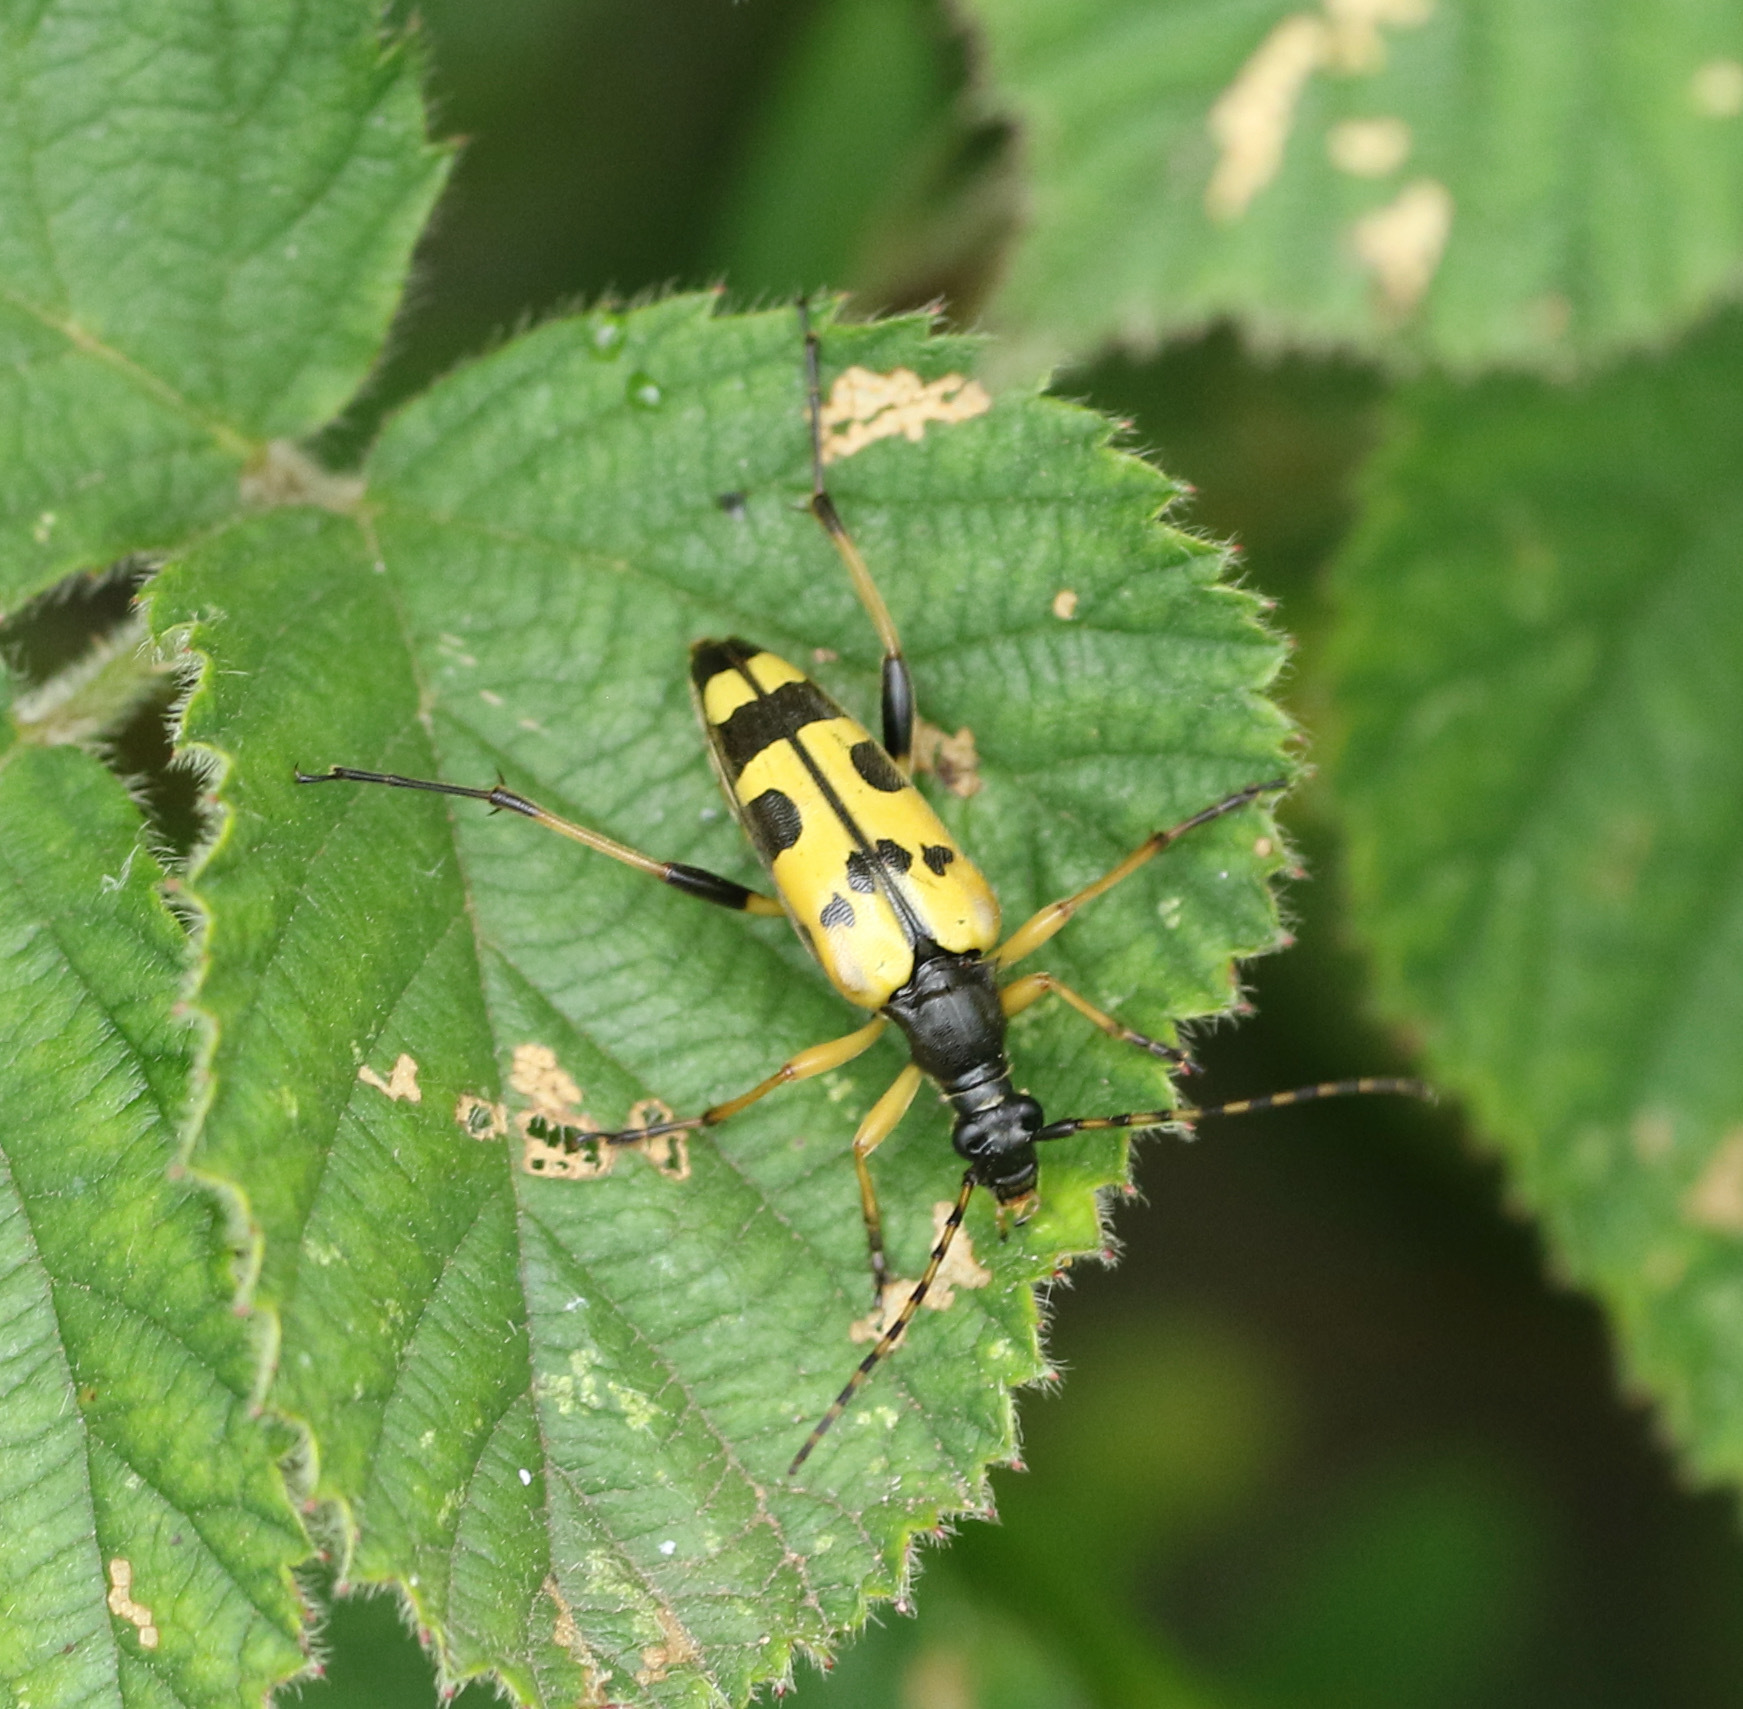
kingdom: Animalia
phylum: Arthropoda
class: Insecta
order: Coleoptera
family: Cerambycidae
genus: Rutpela
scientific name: Rutpela maculata
